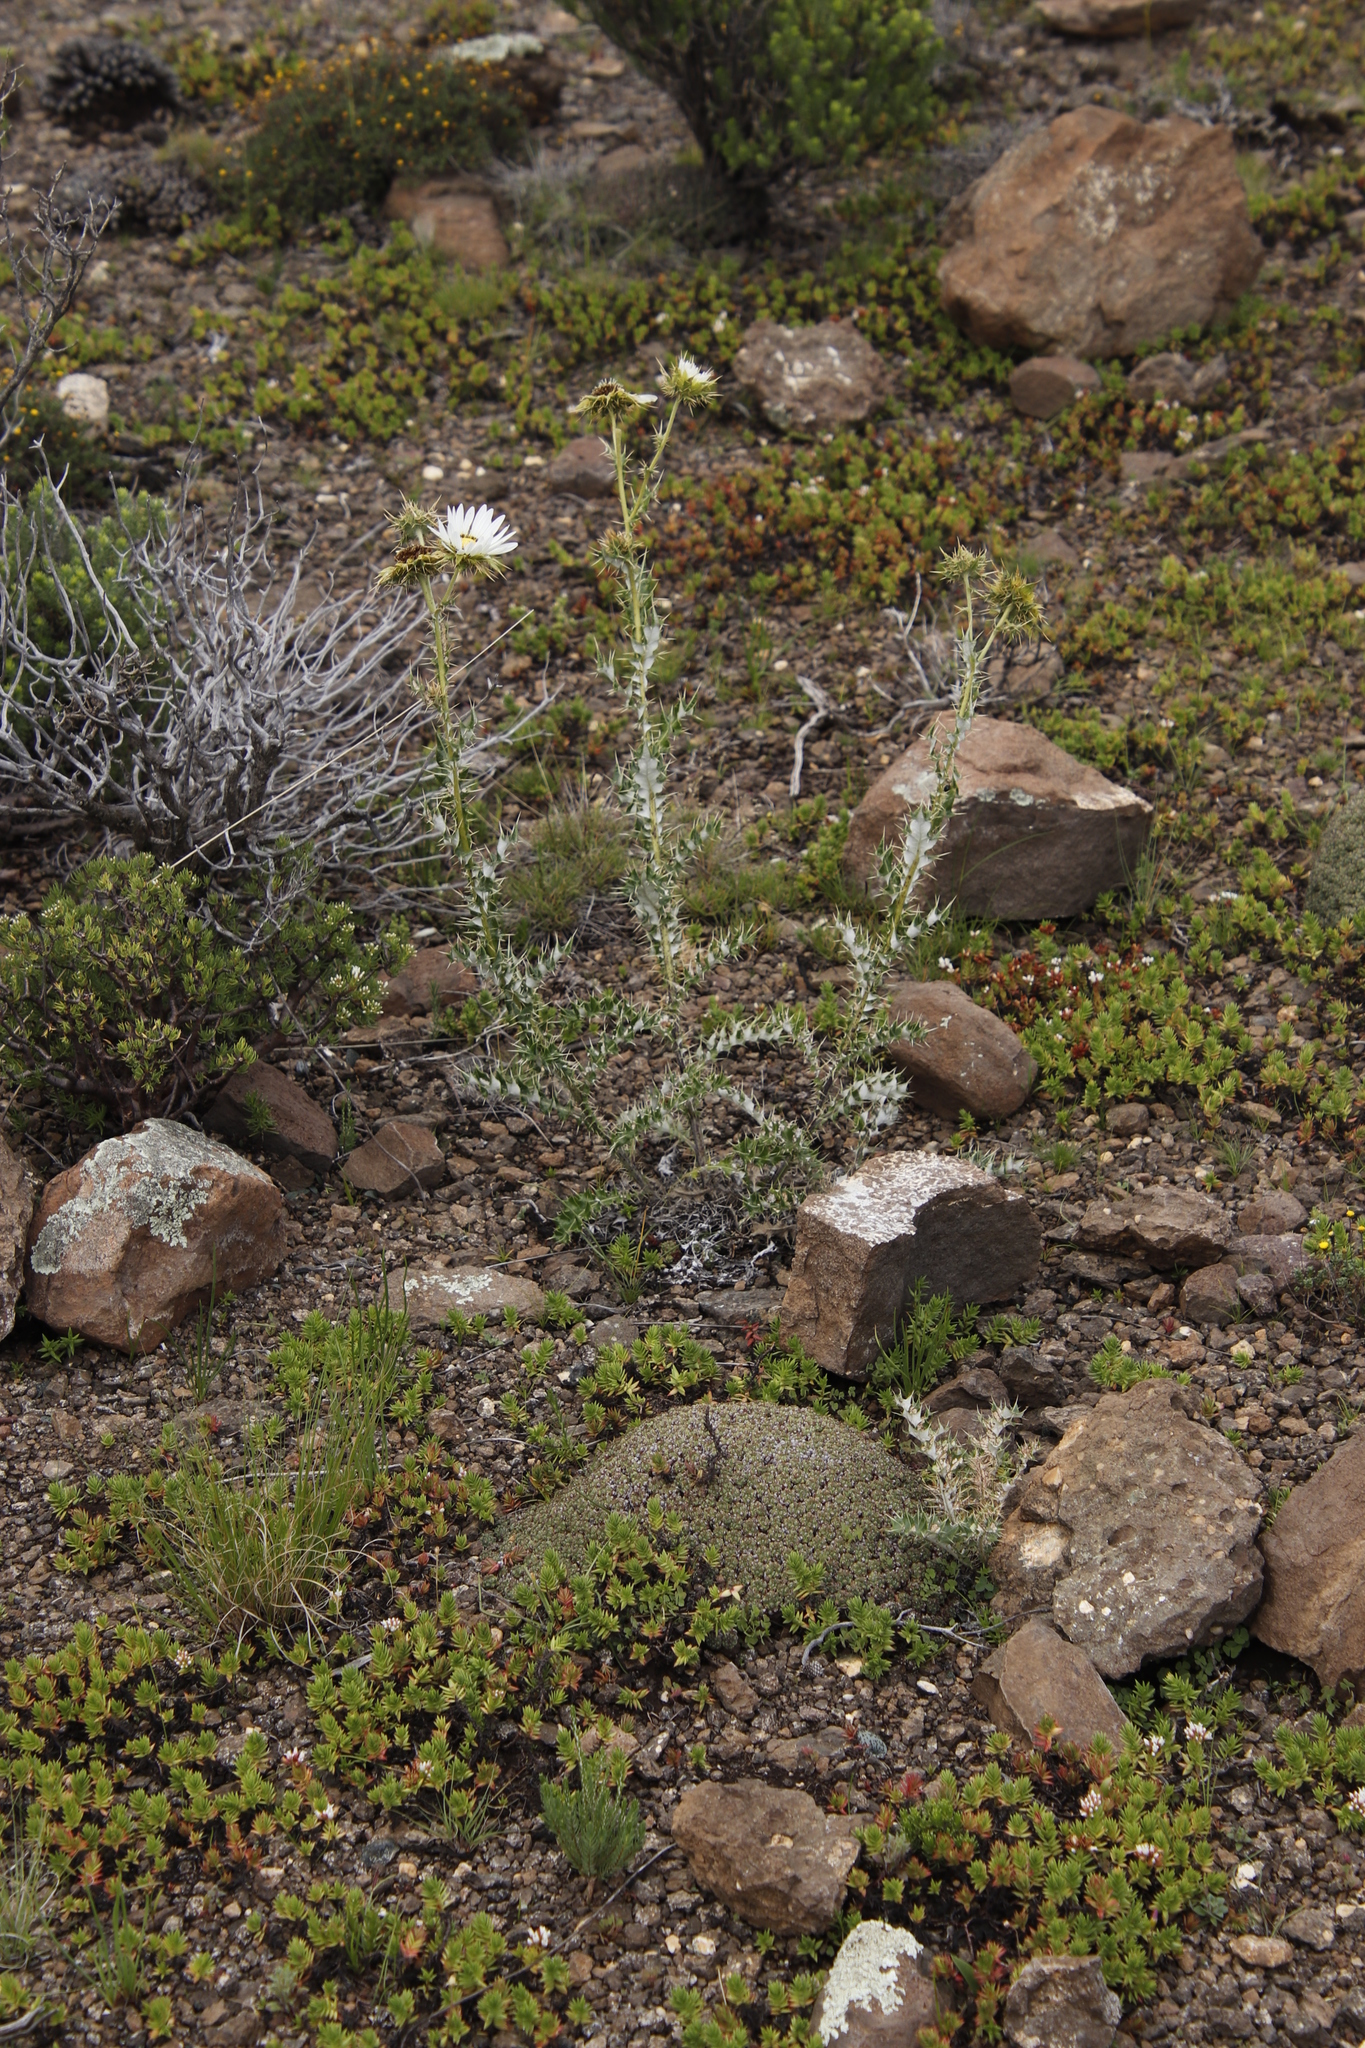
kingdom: Plantae
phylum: Tracheophyta
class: Magnoliopsida
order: Asterales
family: Asteraceae
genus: Berkheya
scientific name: Berkheya cirsiifolia
